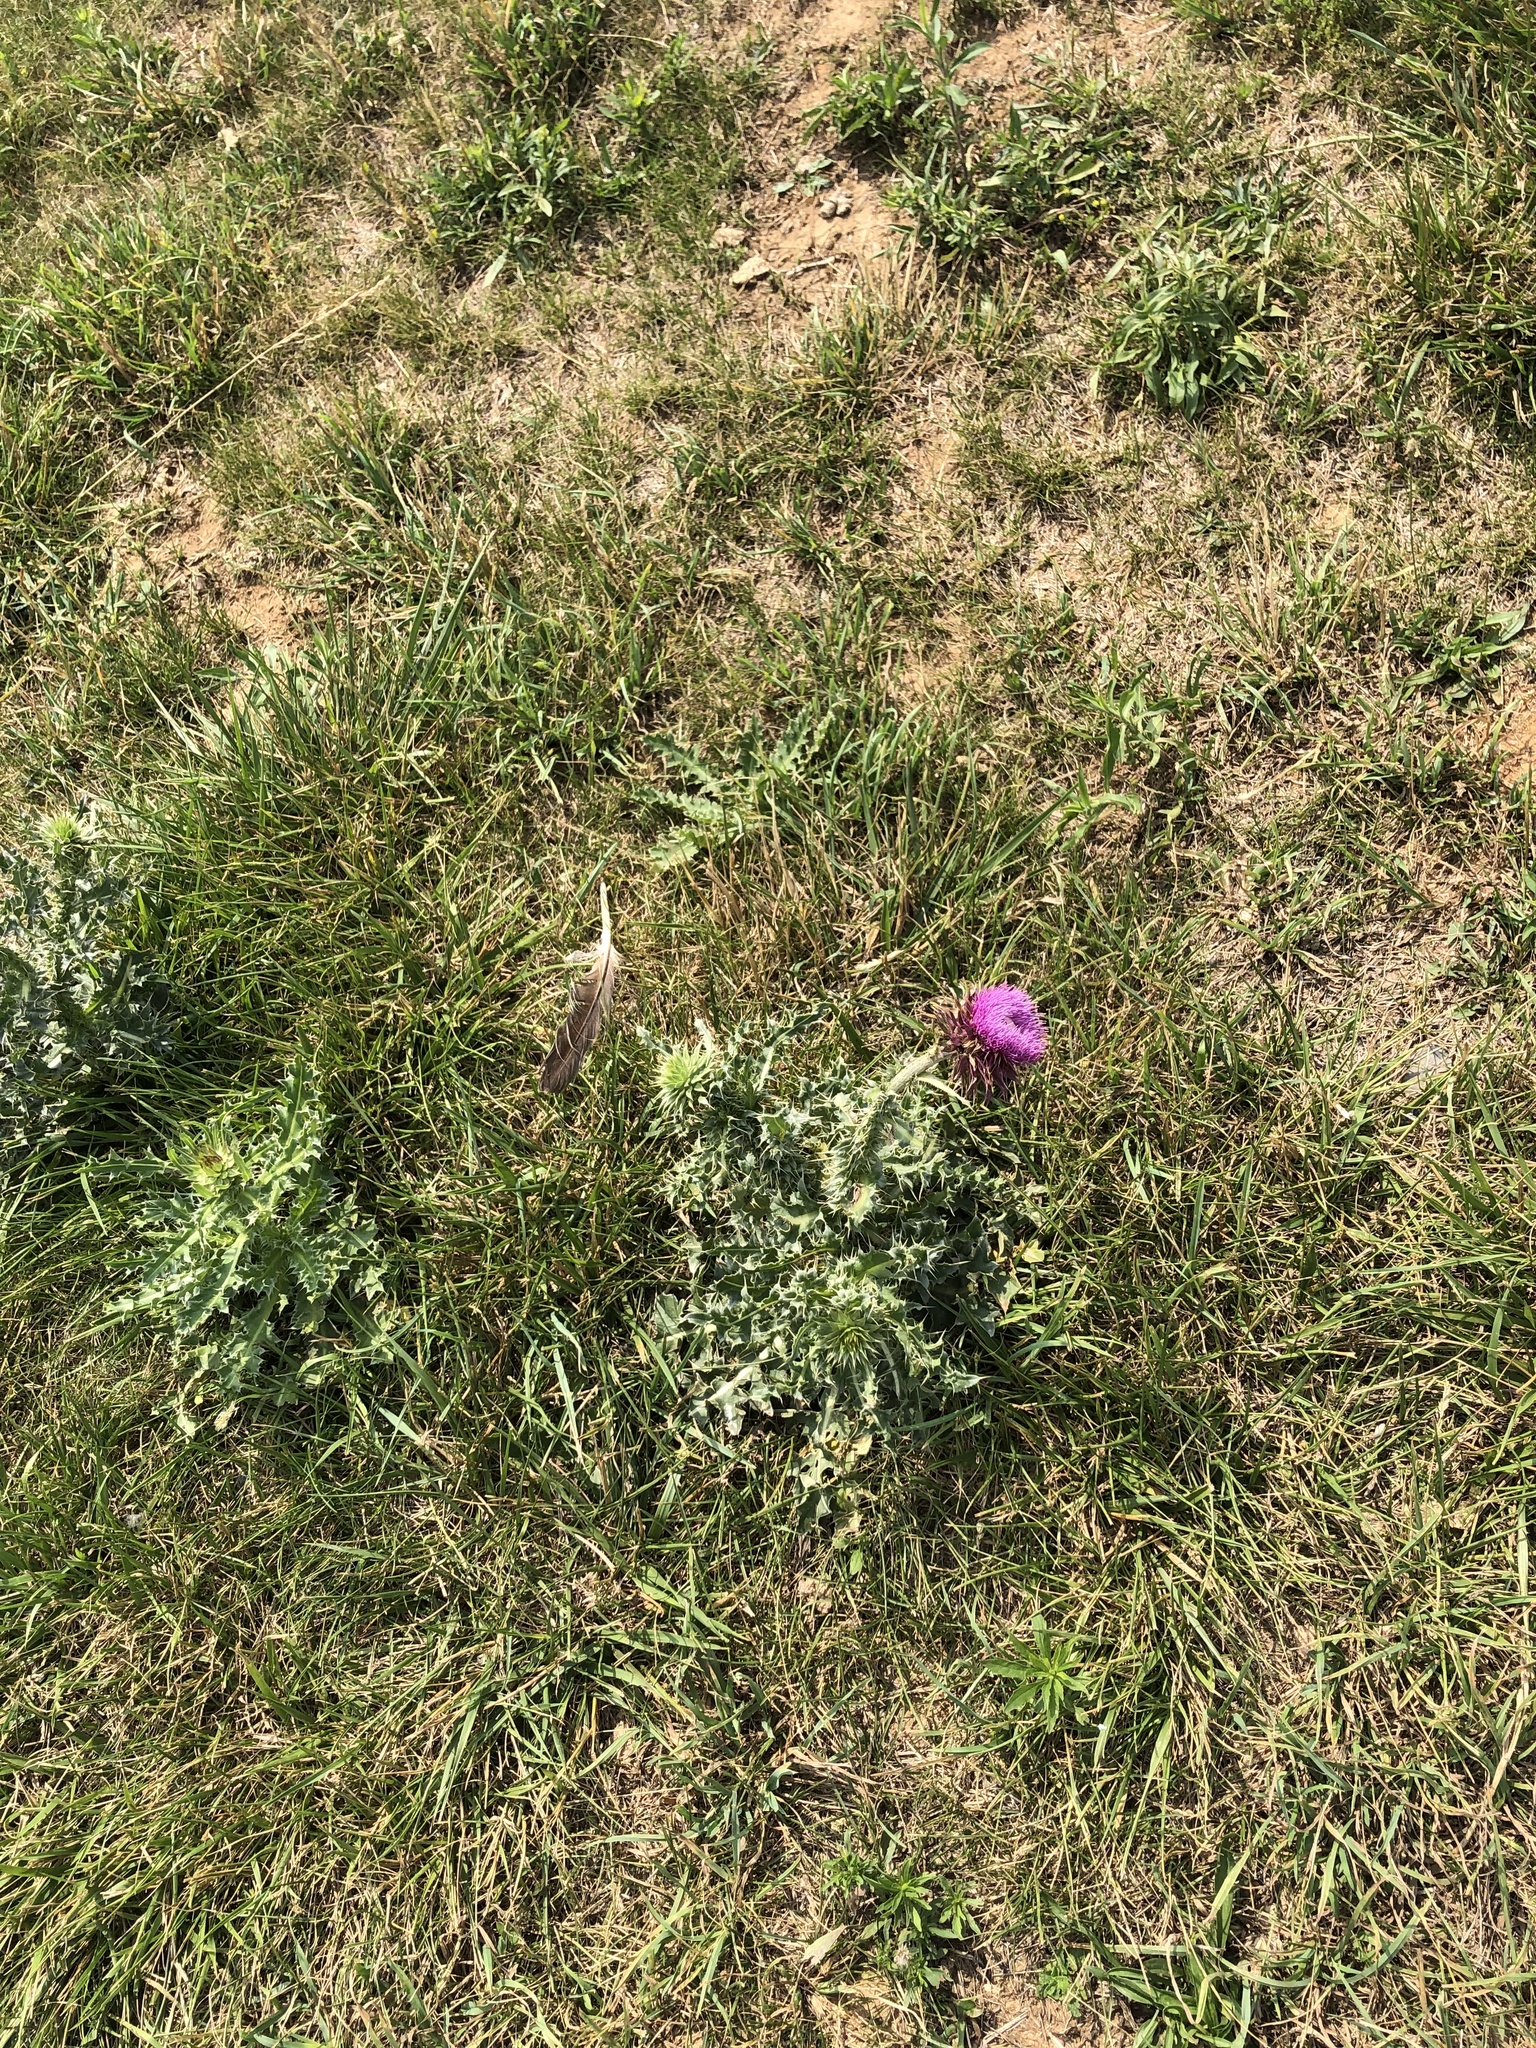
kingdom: Plantae
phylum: Tracheophyta
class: Magnoliopsida
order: Asterales
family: Asteraceae
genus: Carduus
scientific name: Carduus nutans
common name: Musk thistle
